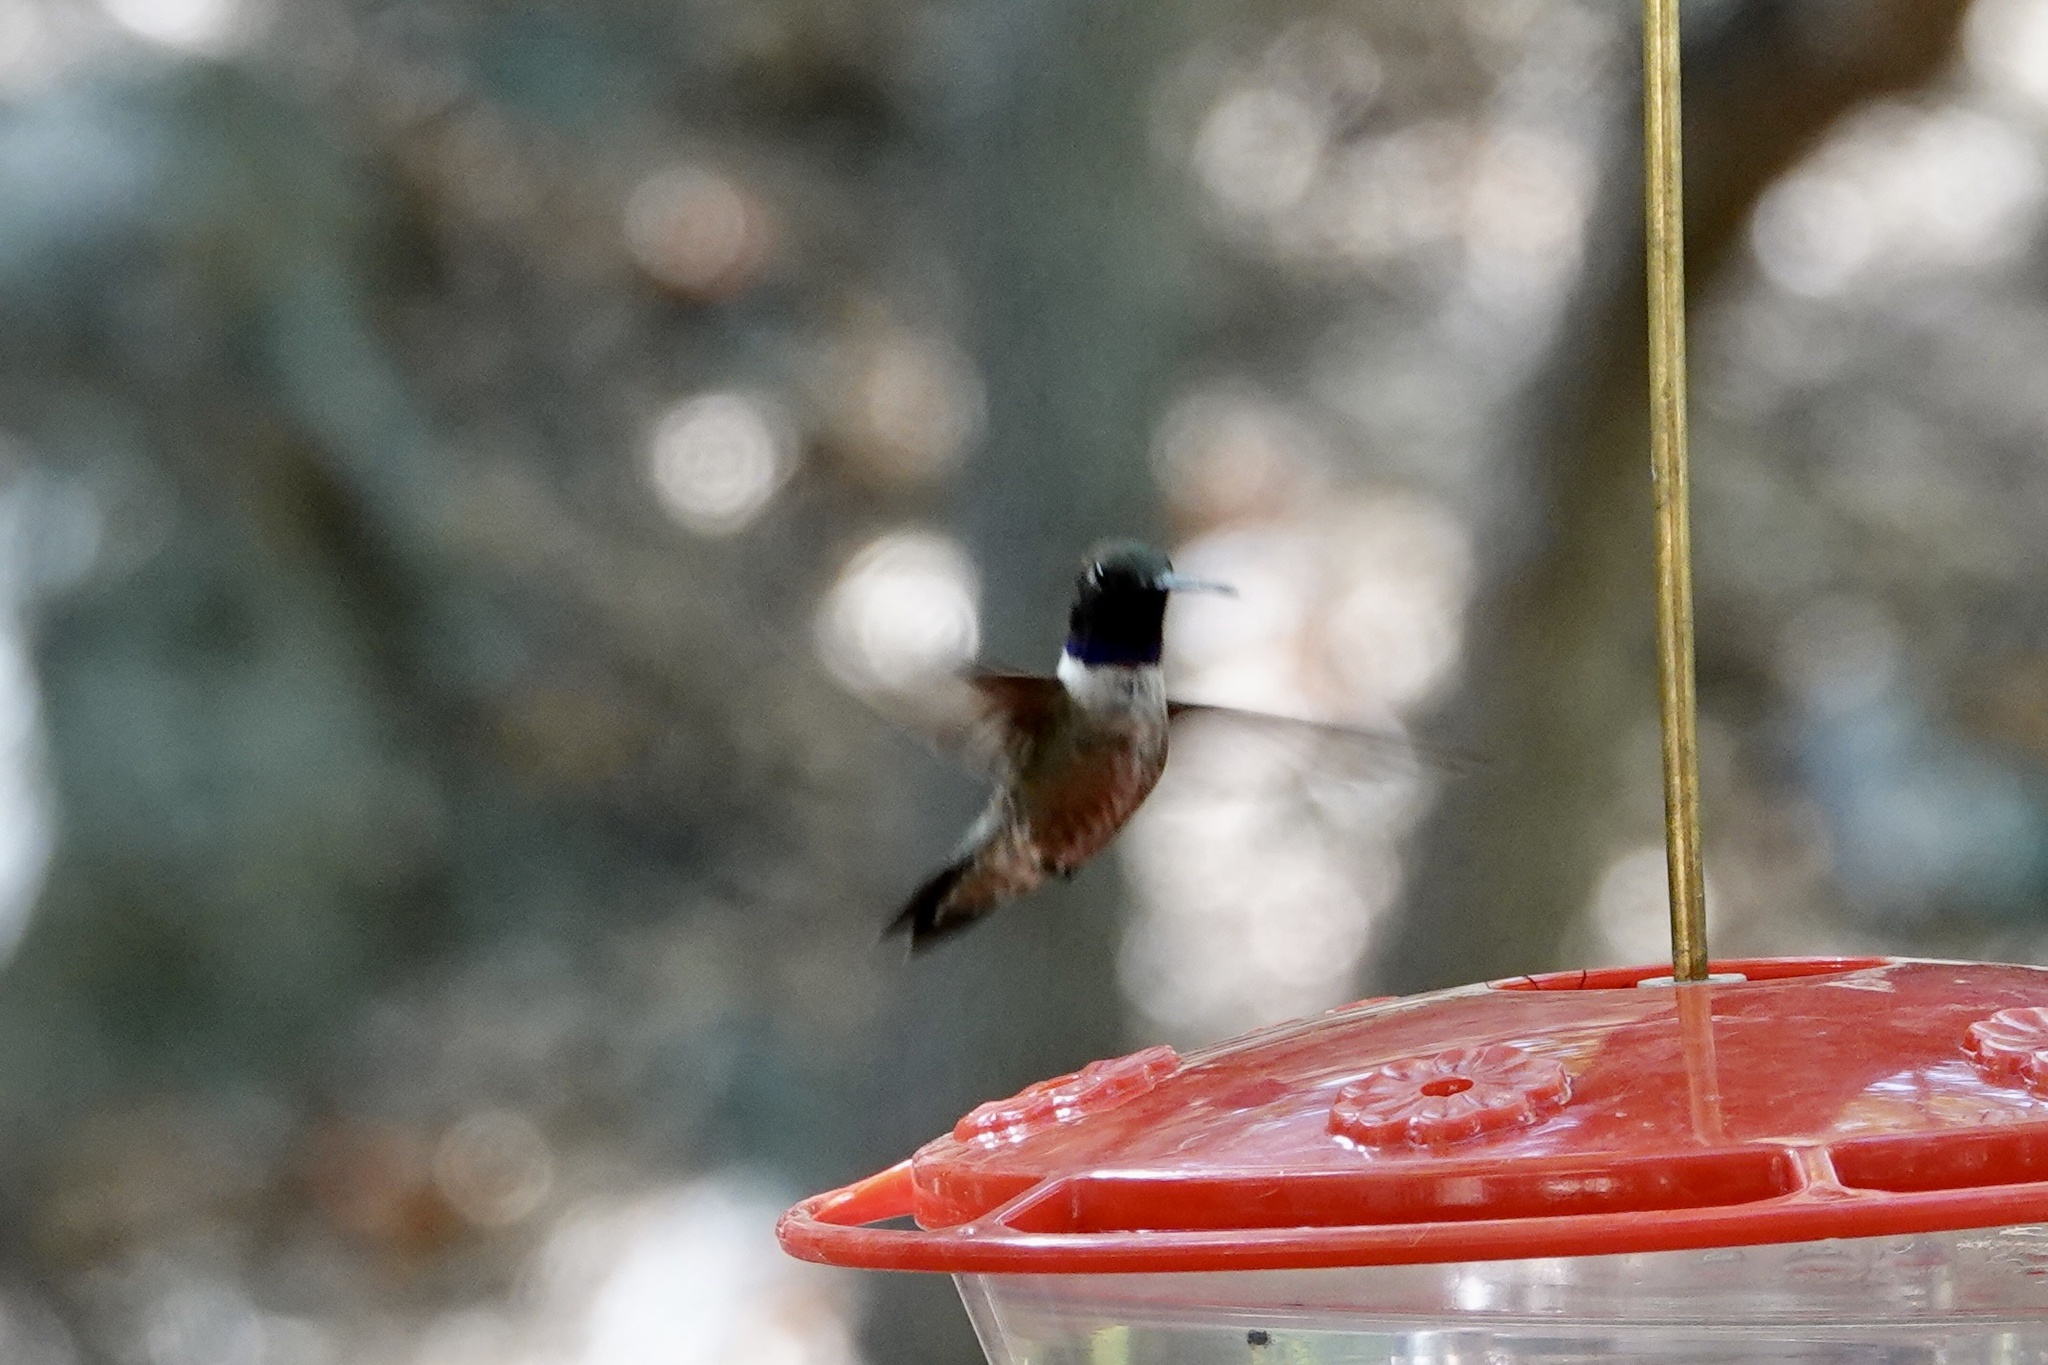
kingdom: Animalia
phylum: Chordata
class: Aves
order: Apodiformes
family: Trochilidae
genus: Archilochus
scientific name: Archilochus alexandri
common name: Black-chinned hummingbird
